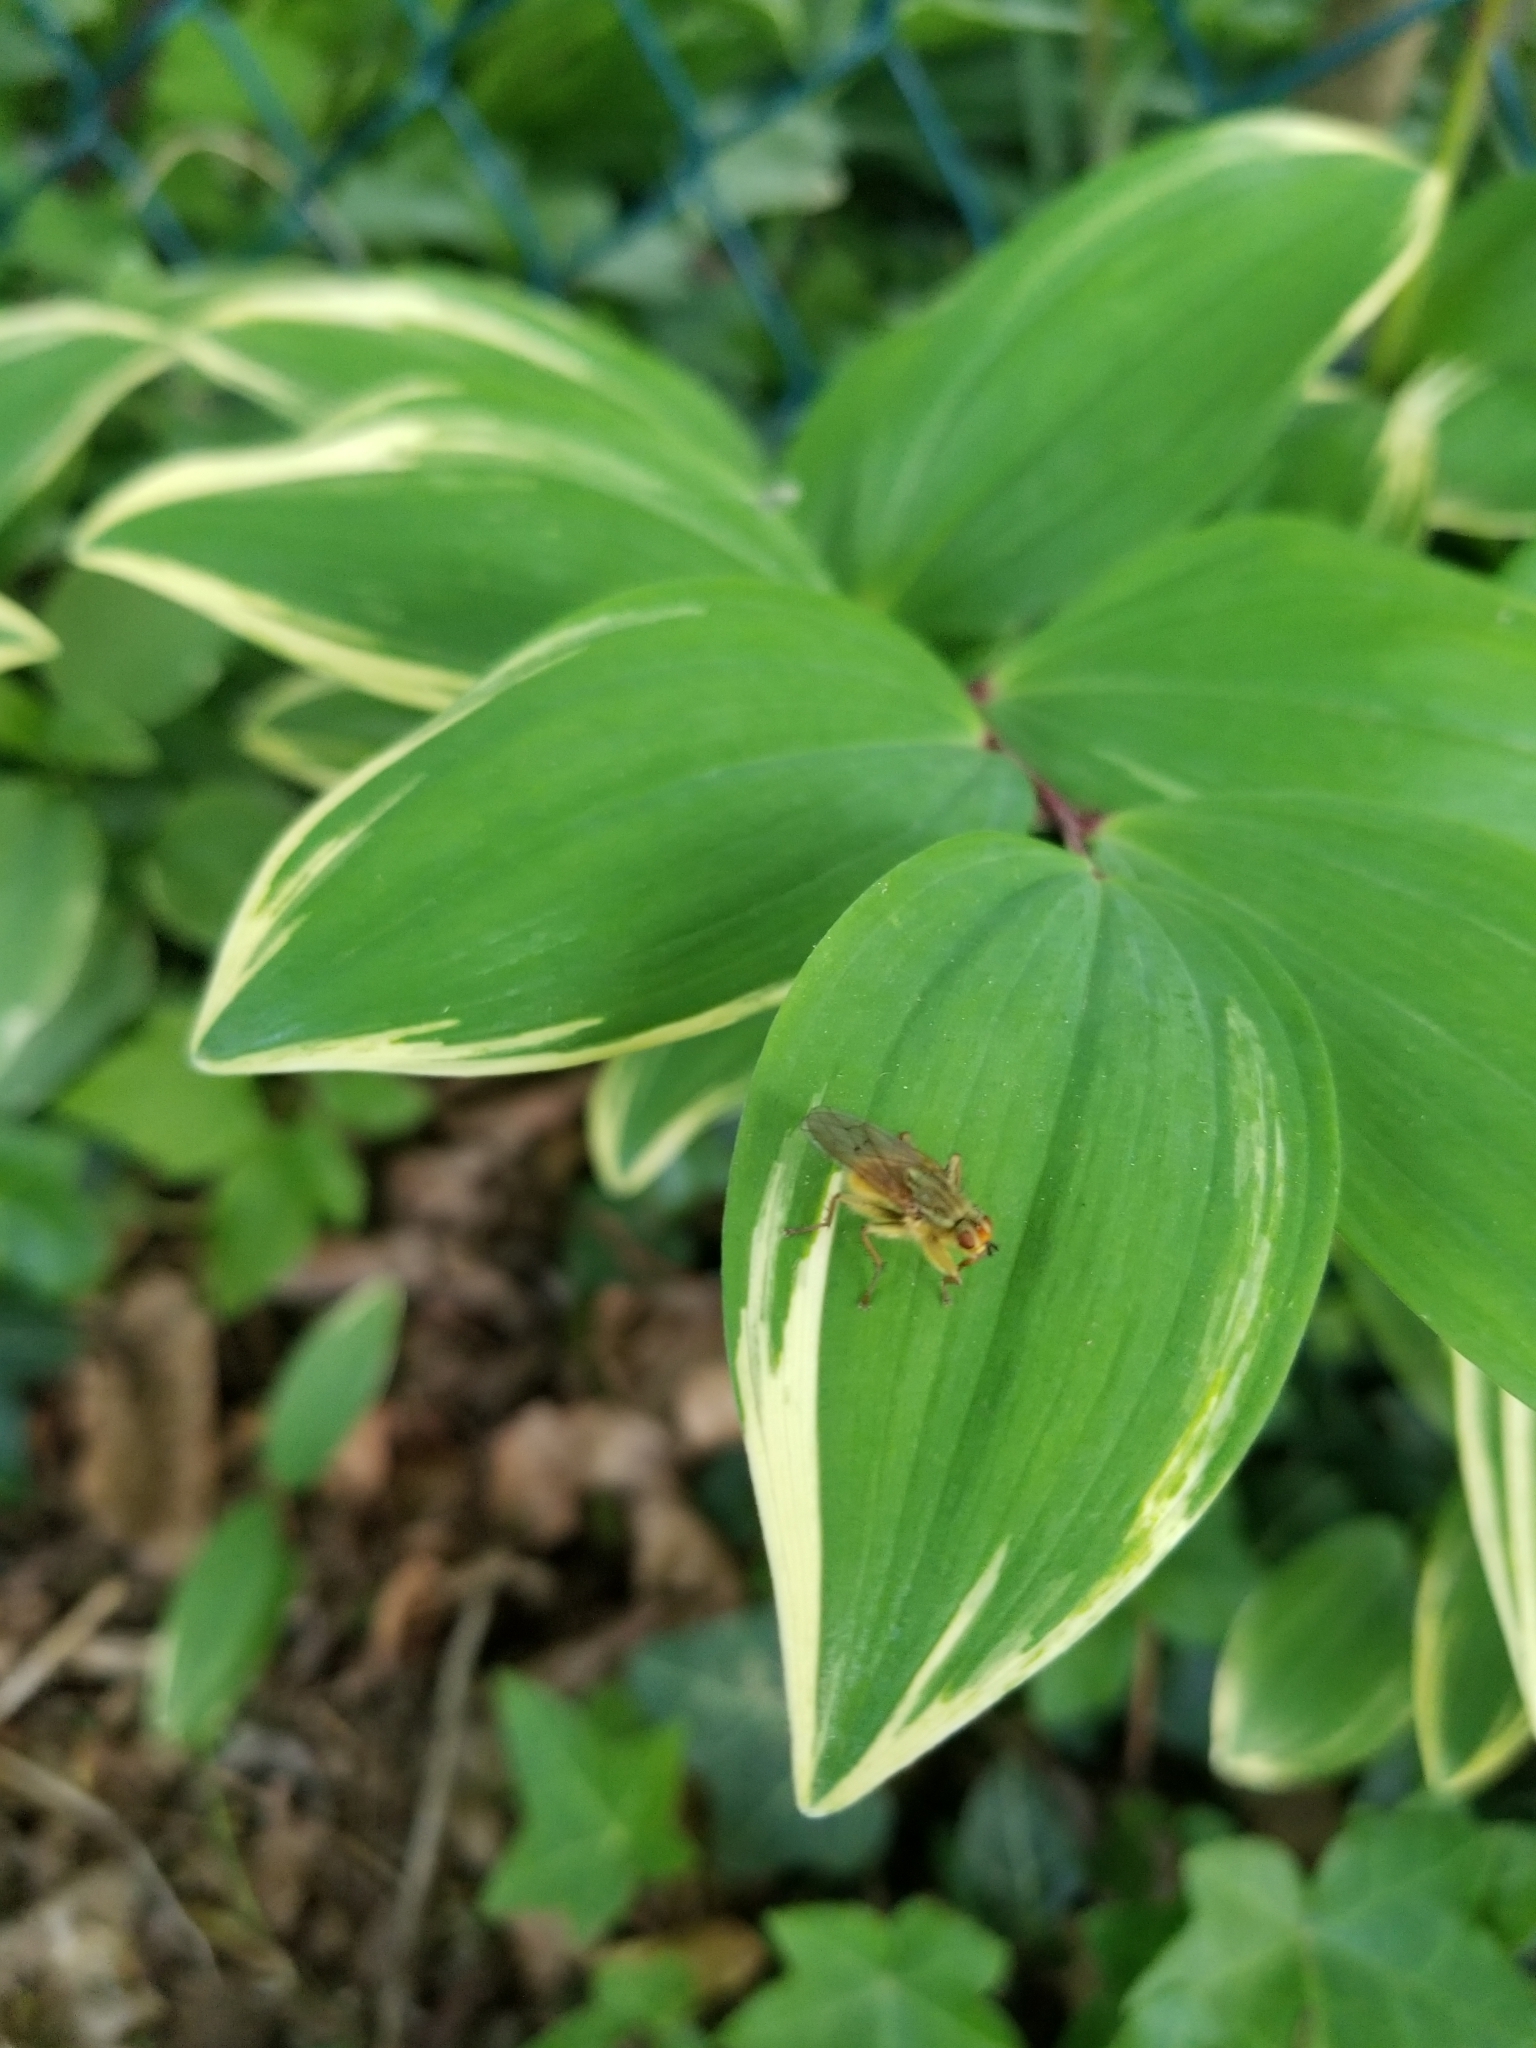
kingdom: Animalia
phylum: Arthropoda
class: Insecta
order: Diptera
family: Scathophagidae
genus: Scathophaga
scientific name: Scathophaga stercoraria
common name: Yellow dung fly
